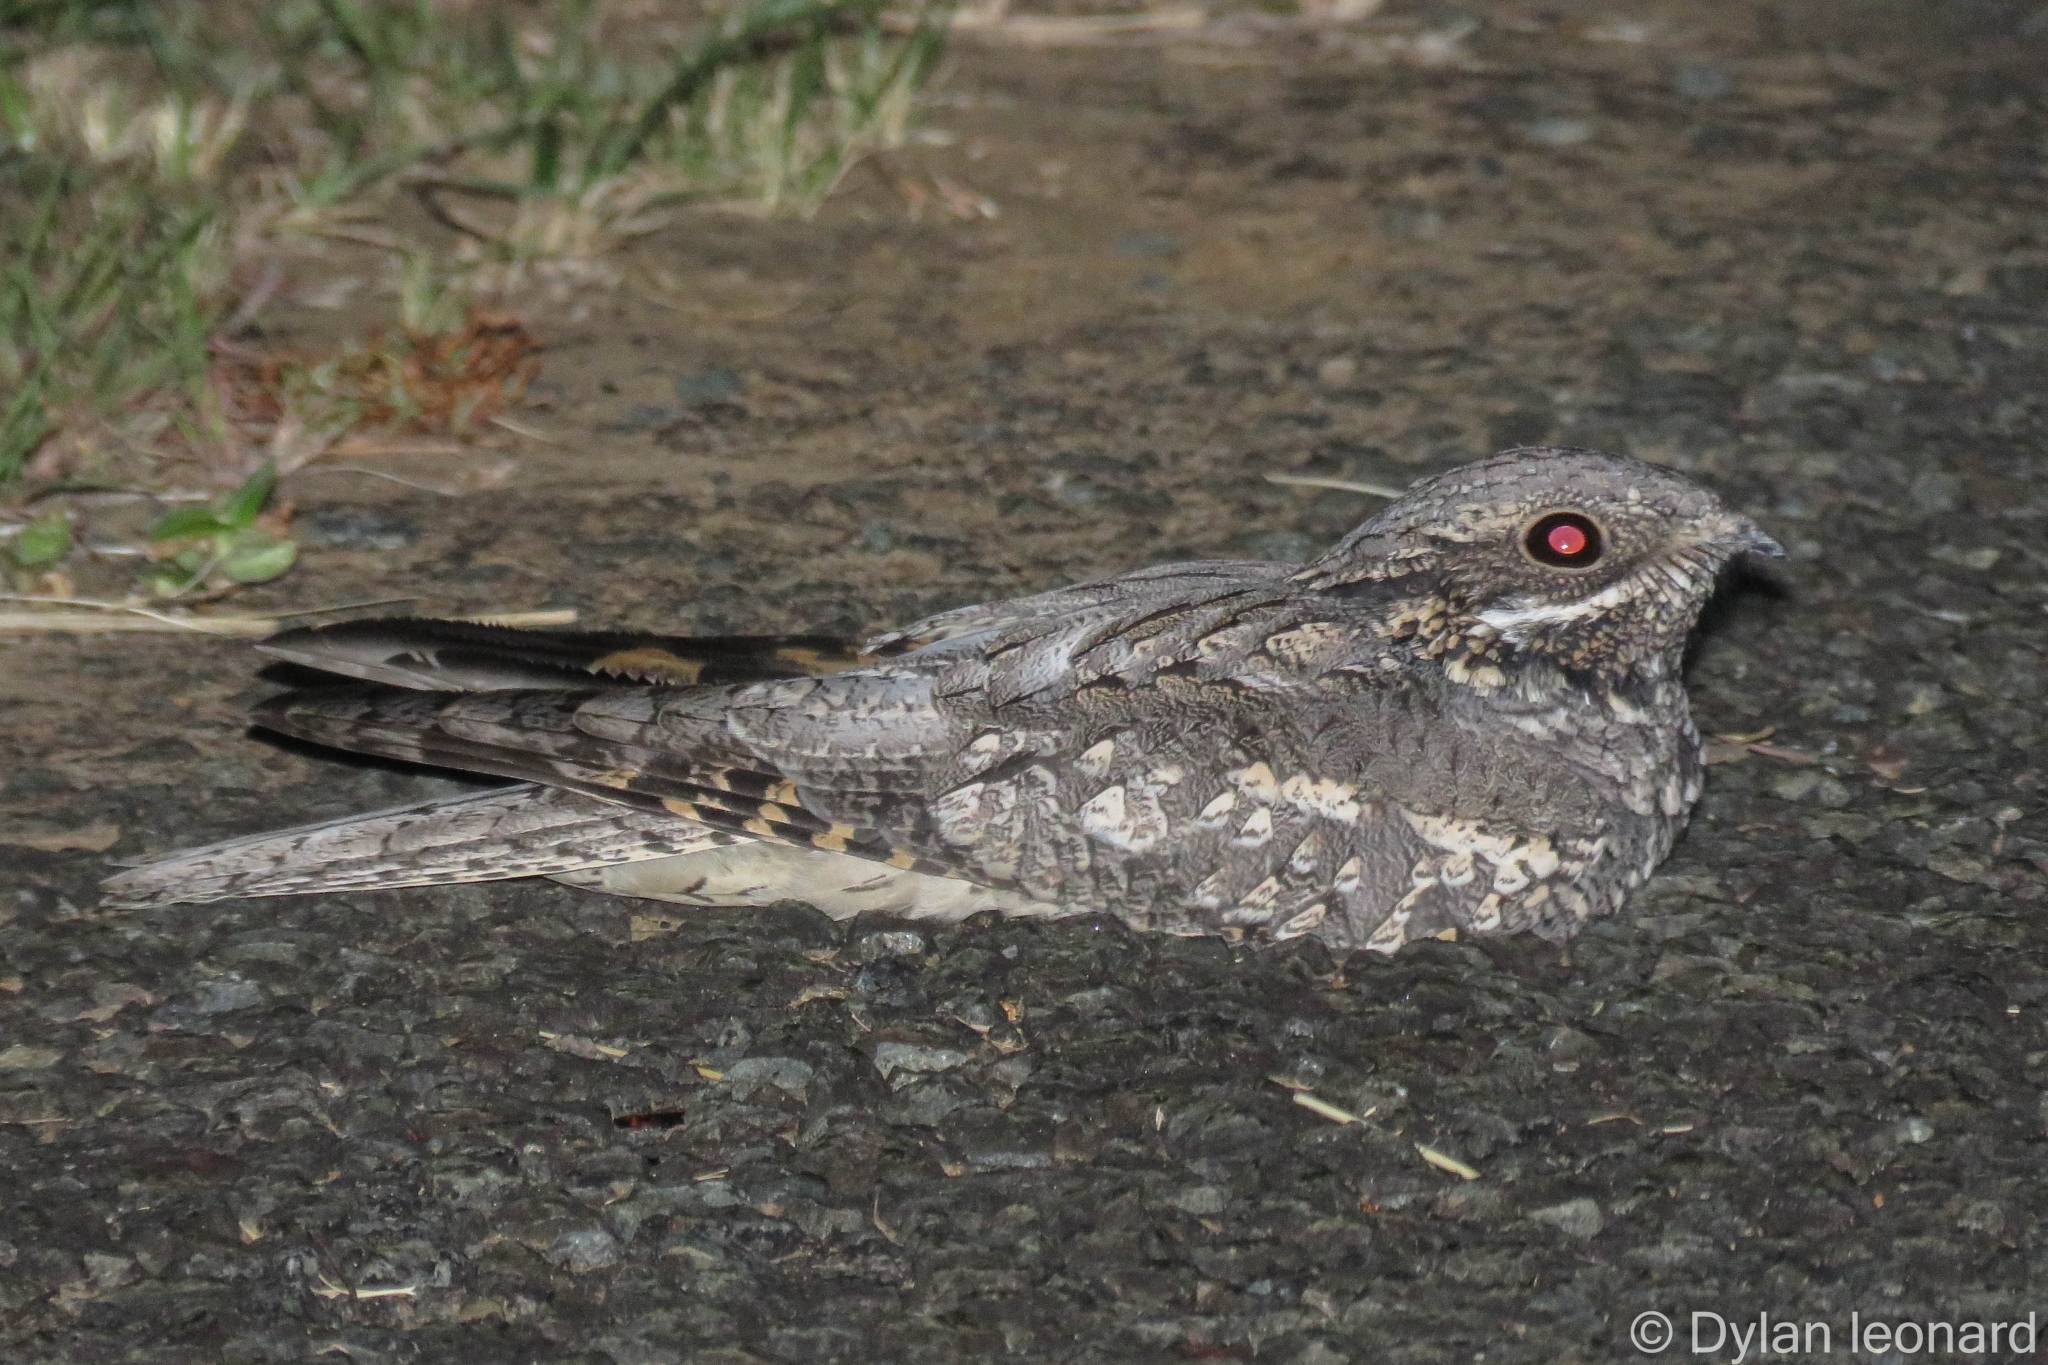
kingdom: Animalia
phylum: Chordata
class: Aves
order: Caprimulgiformes
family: Caprimulgidae
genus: Caprimulgus
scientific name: Caprimulgus europaeus
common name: European nightjar
